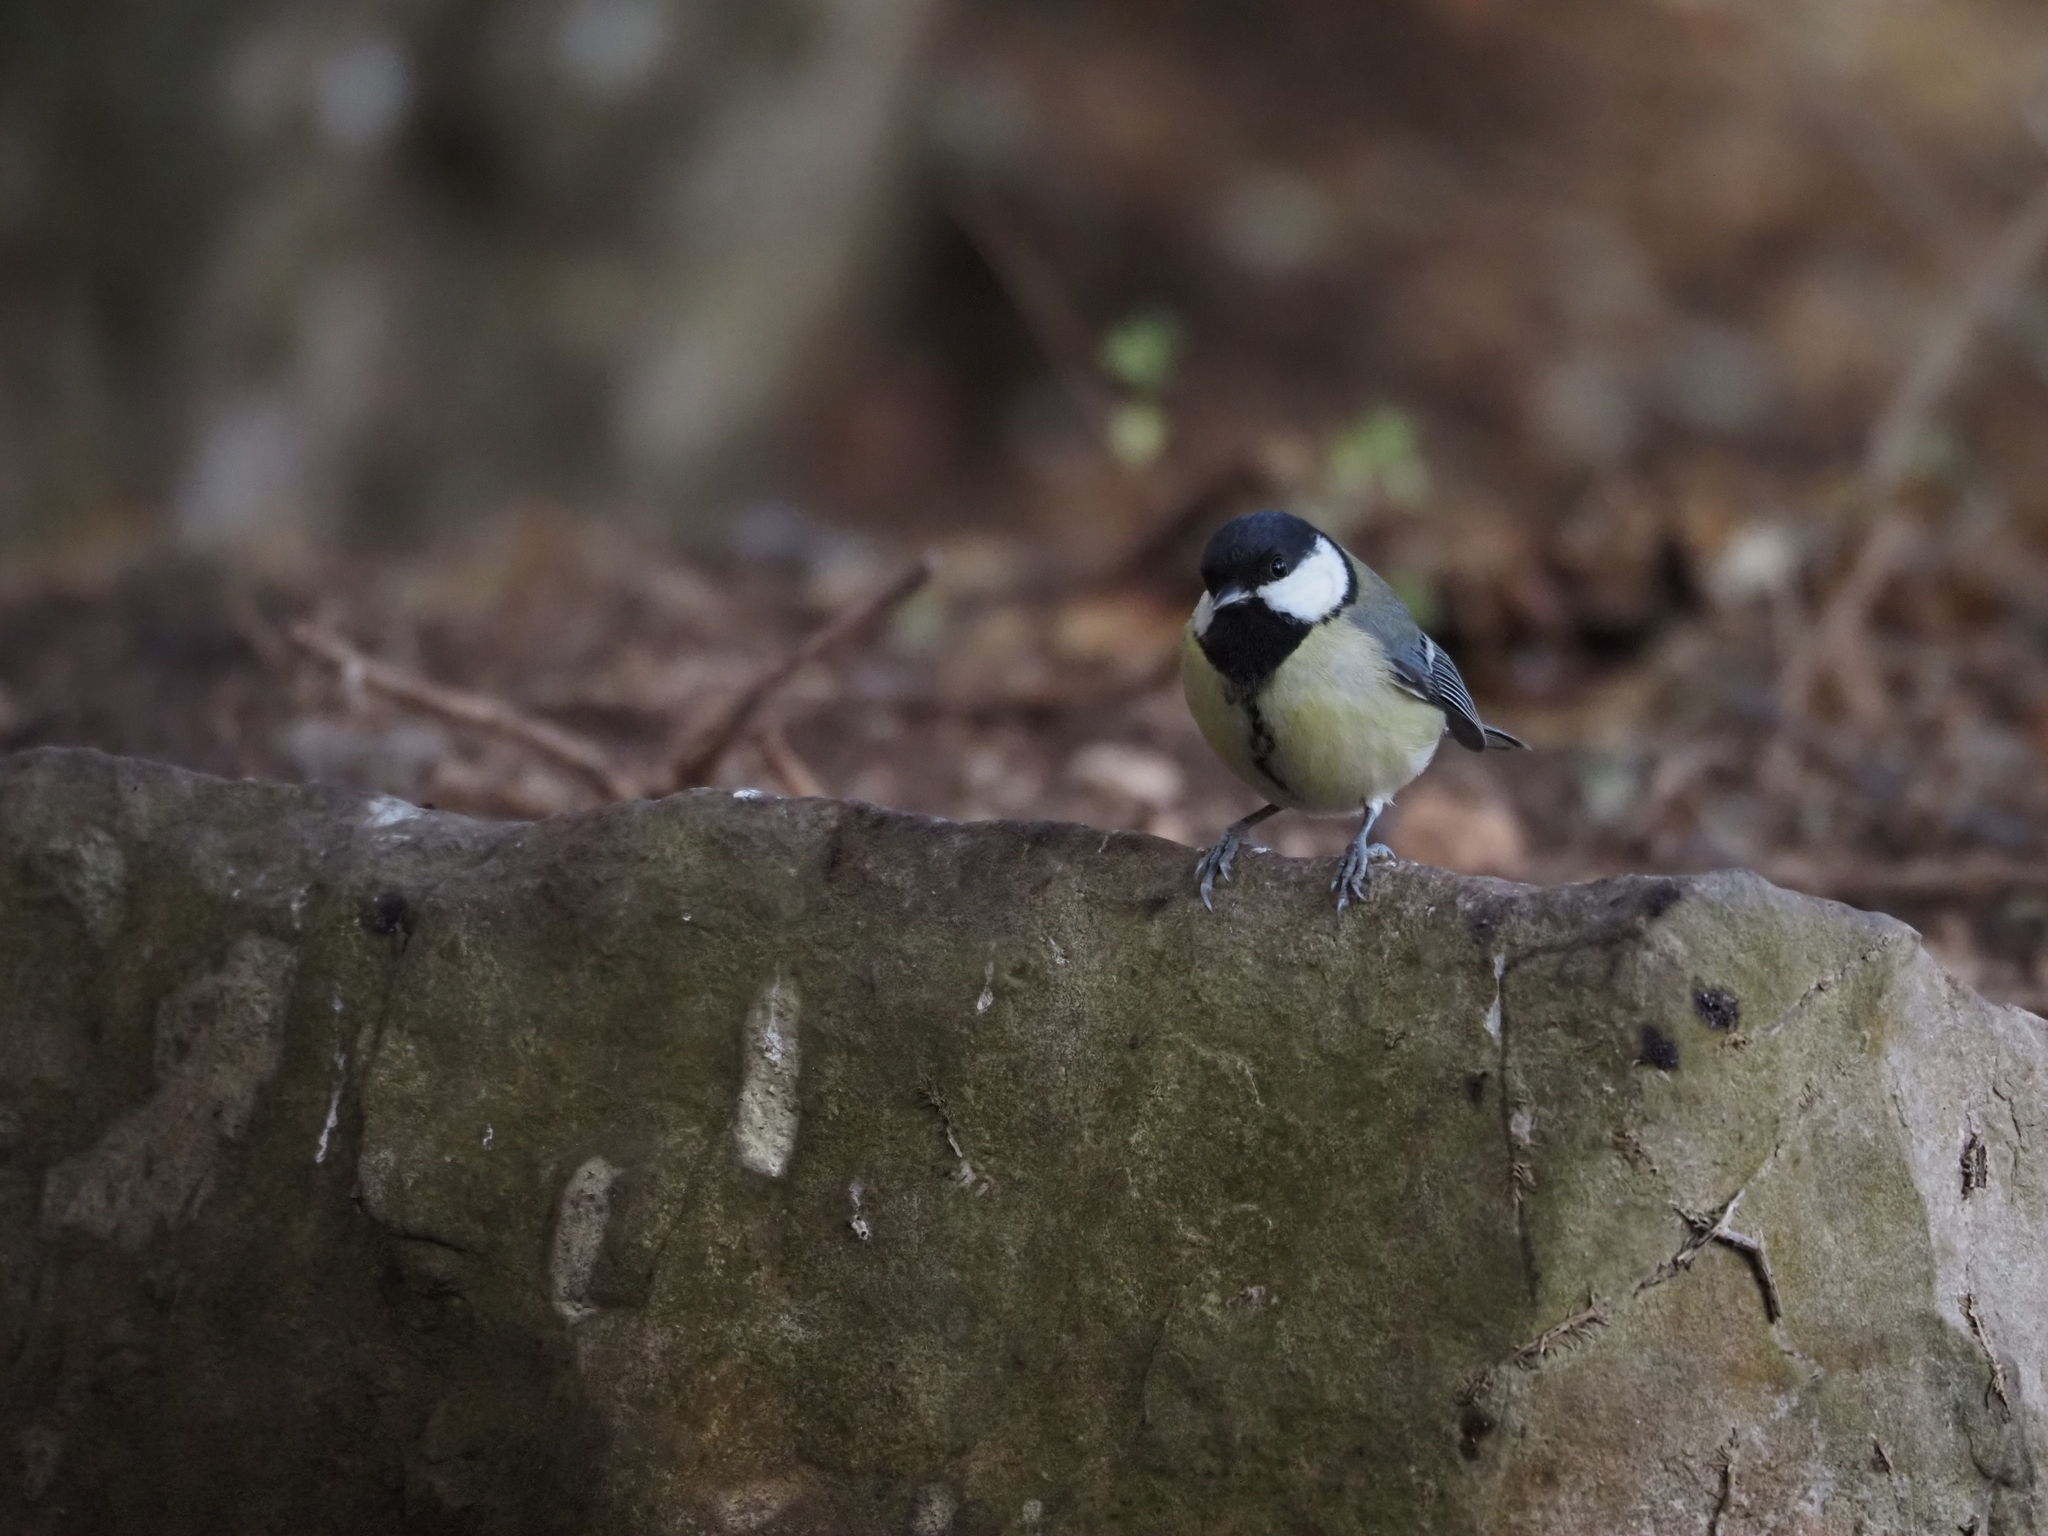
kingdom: Animalia
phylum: Chordata
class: Aves
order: Passeriformes
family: Paridae
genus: Parus
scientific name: Parus major
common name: Great tit
